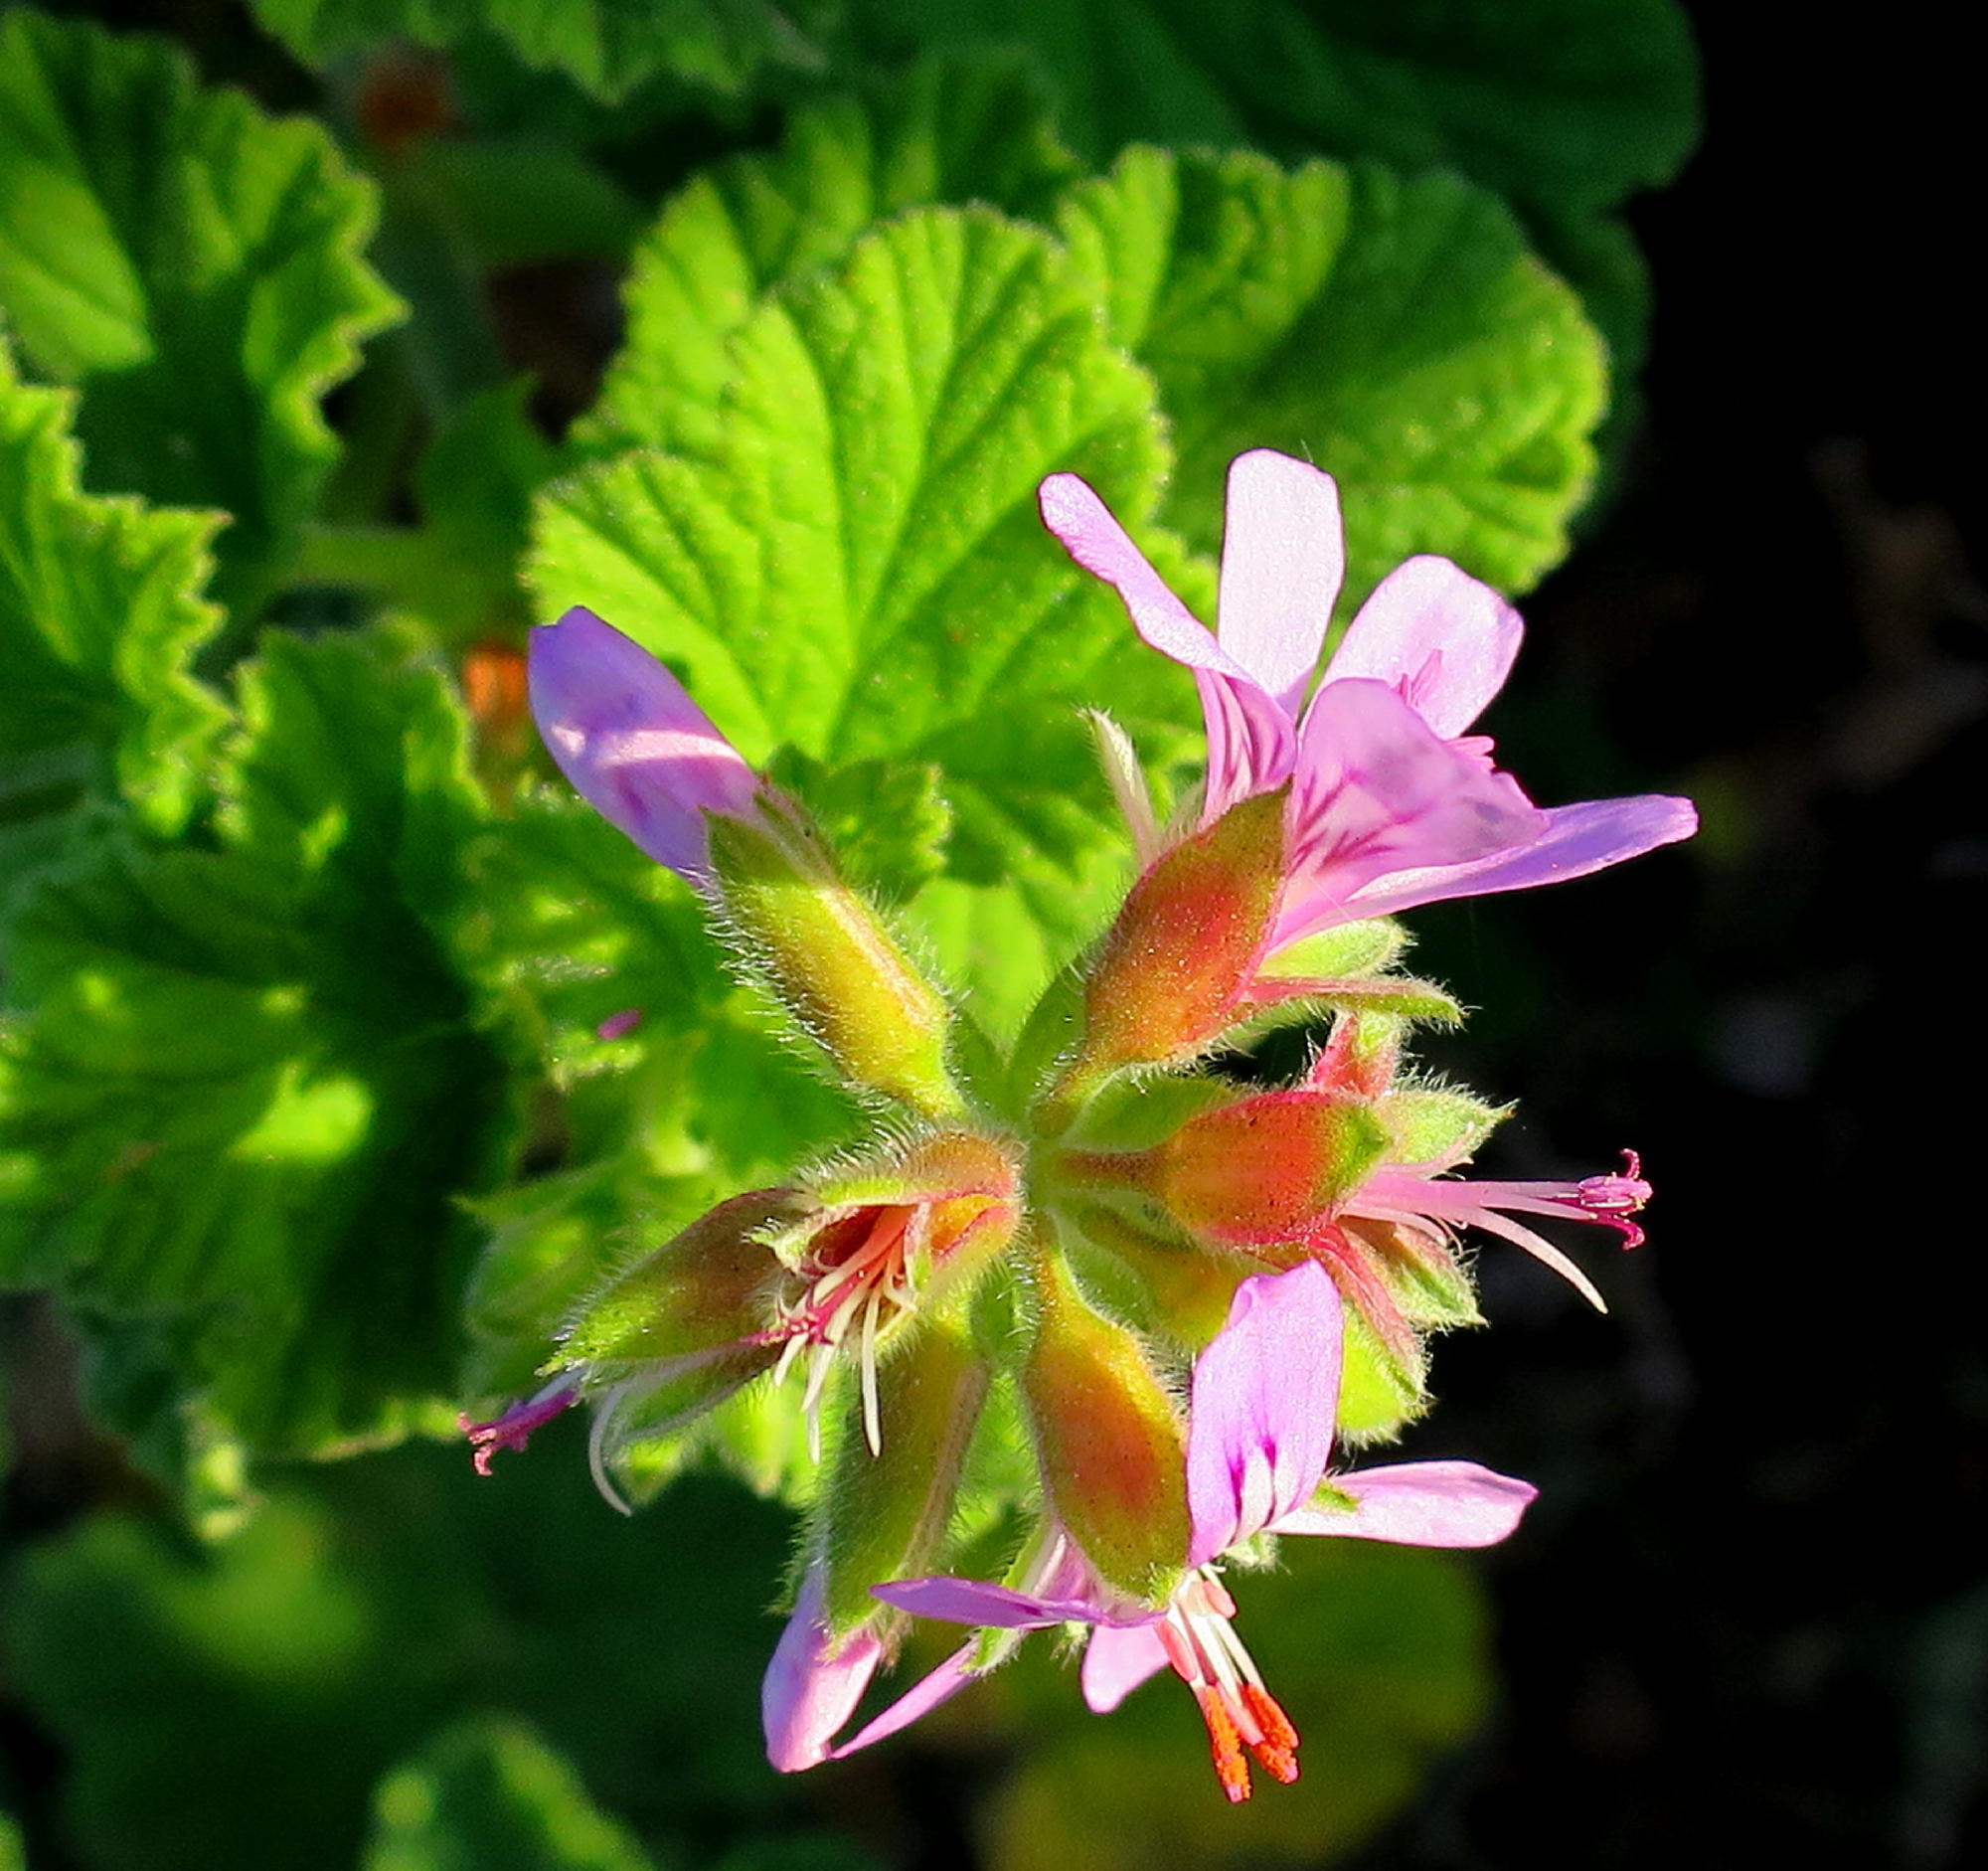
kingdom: Plantae
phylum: Tracheophyta
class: Magnoliopsida
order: Geraniales
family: Geraniaceae
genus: Pelargonium
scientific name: Pelargonium vitifolium
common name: Grapeleaf geranium
